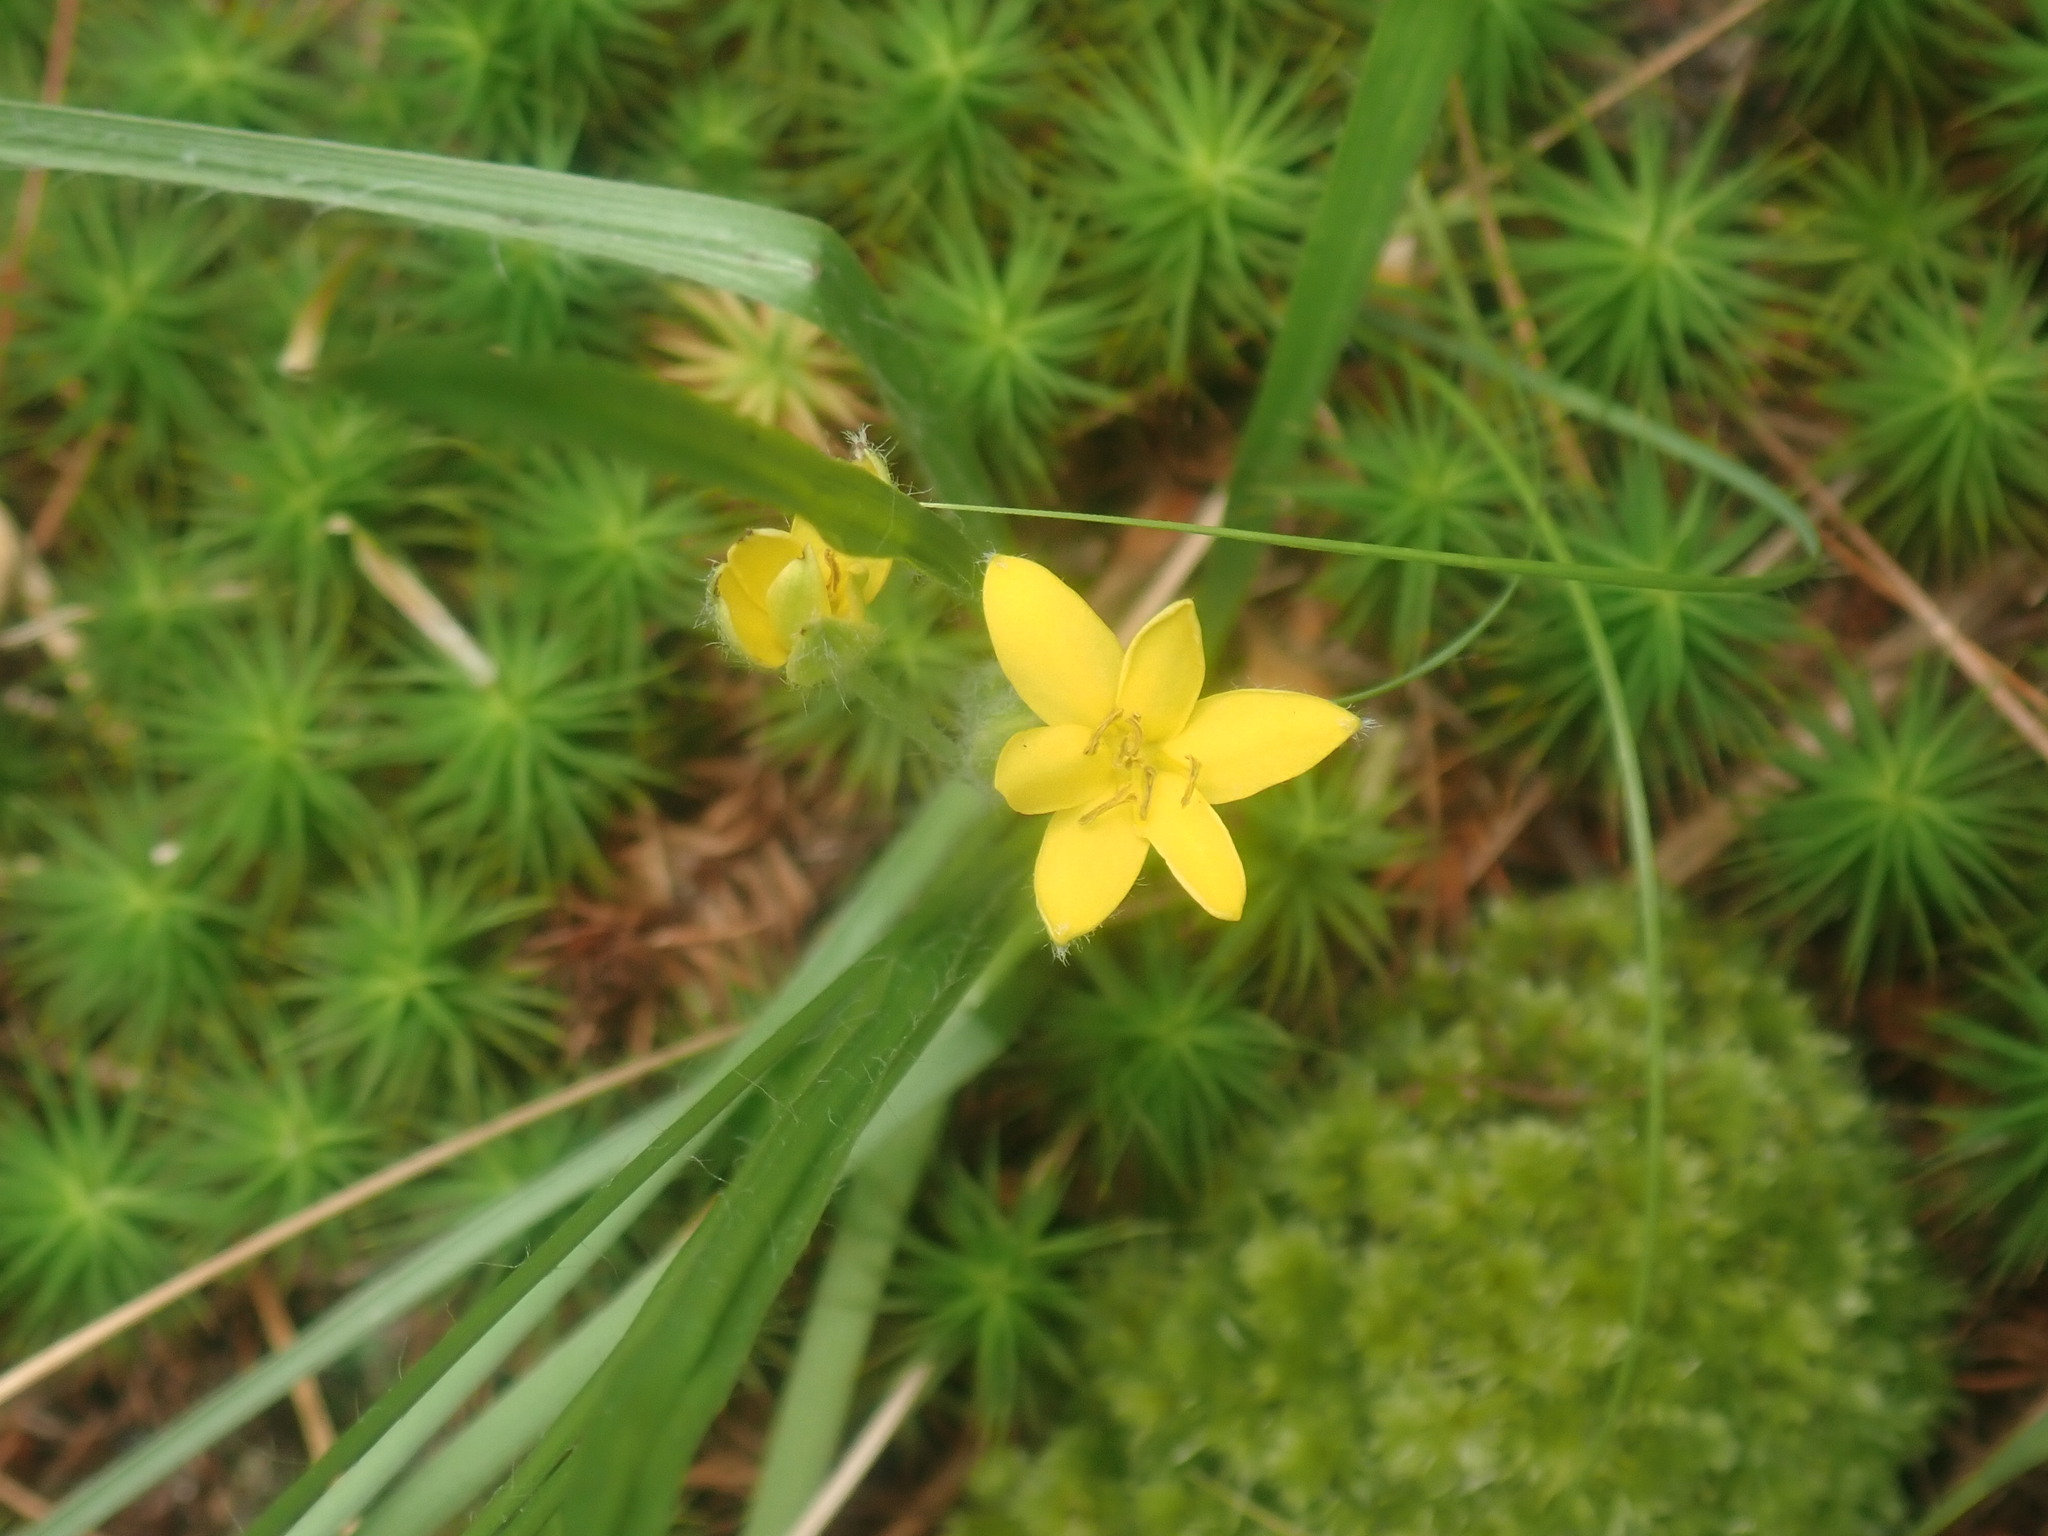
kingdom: Plantae
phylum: Tracheophyta
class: Liliopsida
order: Asparagales
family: Hypoxidaceae
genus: Hypoxis
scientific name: Hypoxis hirsuta
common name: Common goldstar
